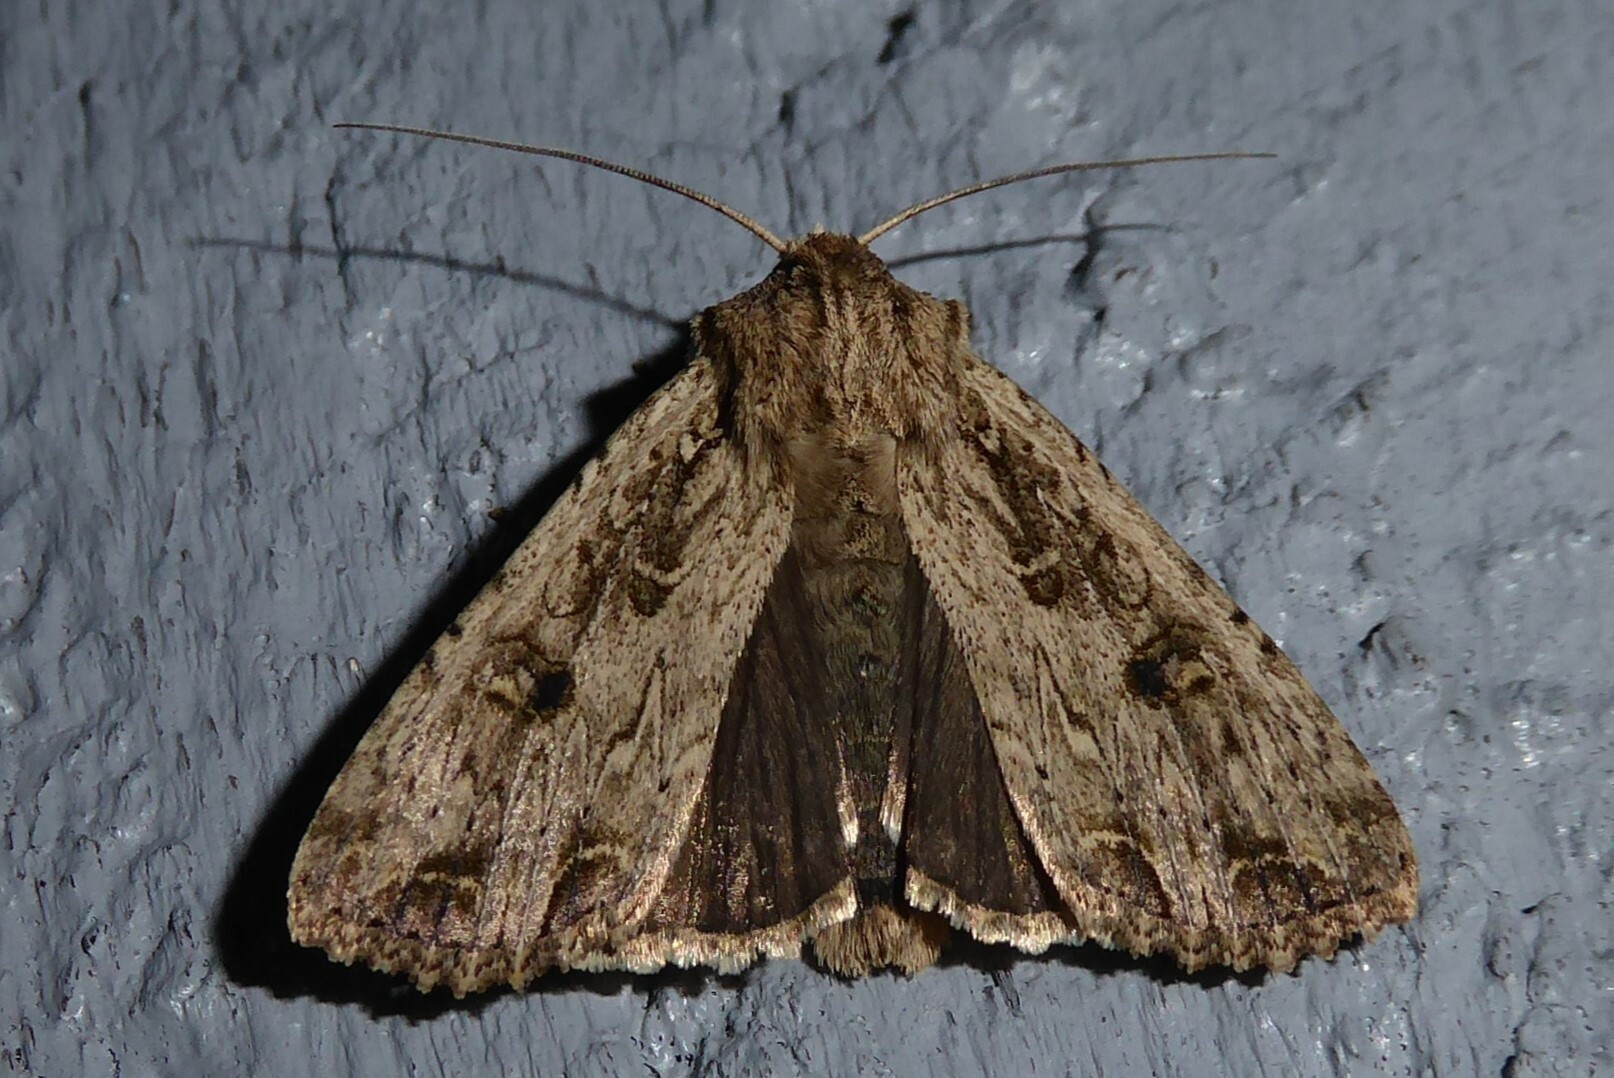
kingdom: Animalia
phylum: Arthropoda
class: Insecta
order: Lepidoptera
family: Noctuidae
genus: Ichneutica
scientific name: Ichneutica lignana
